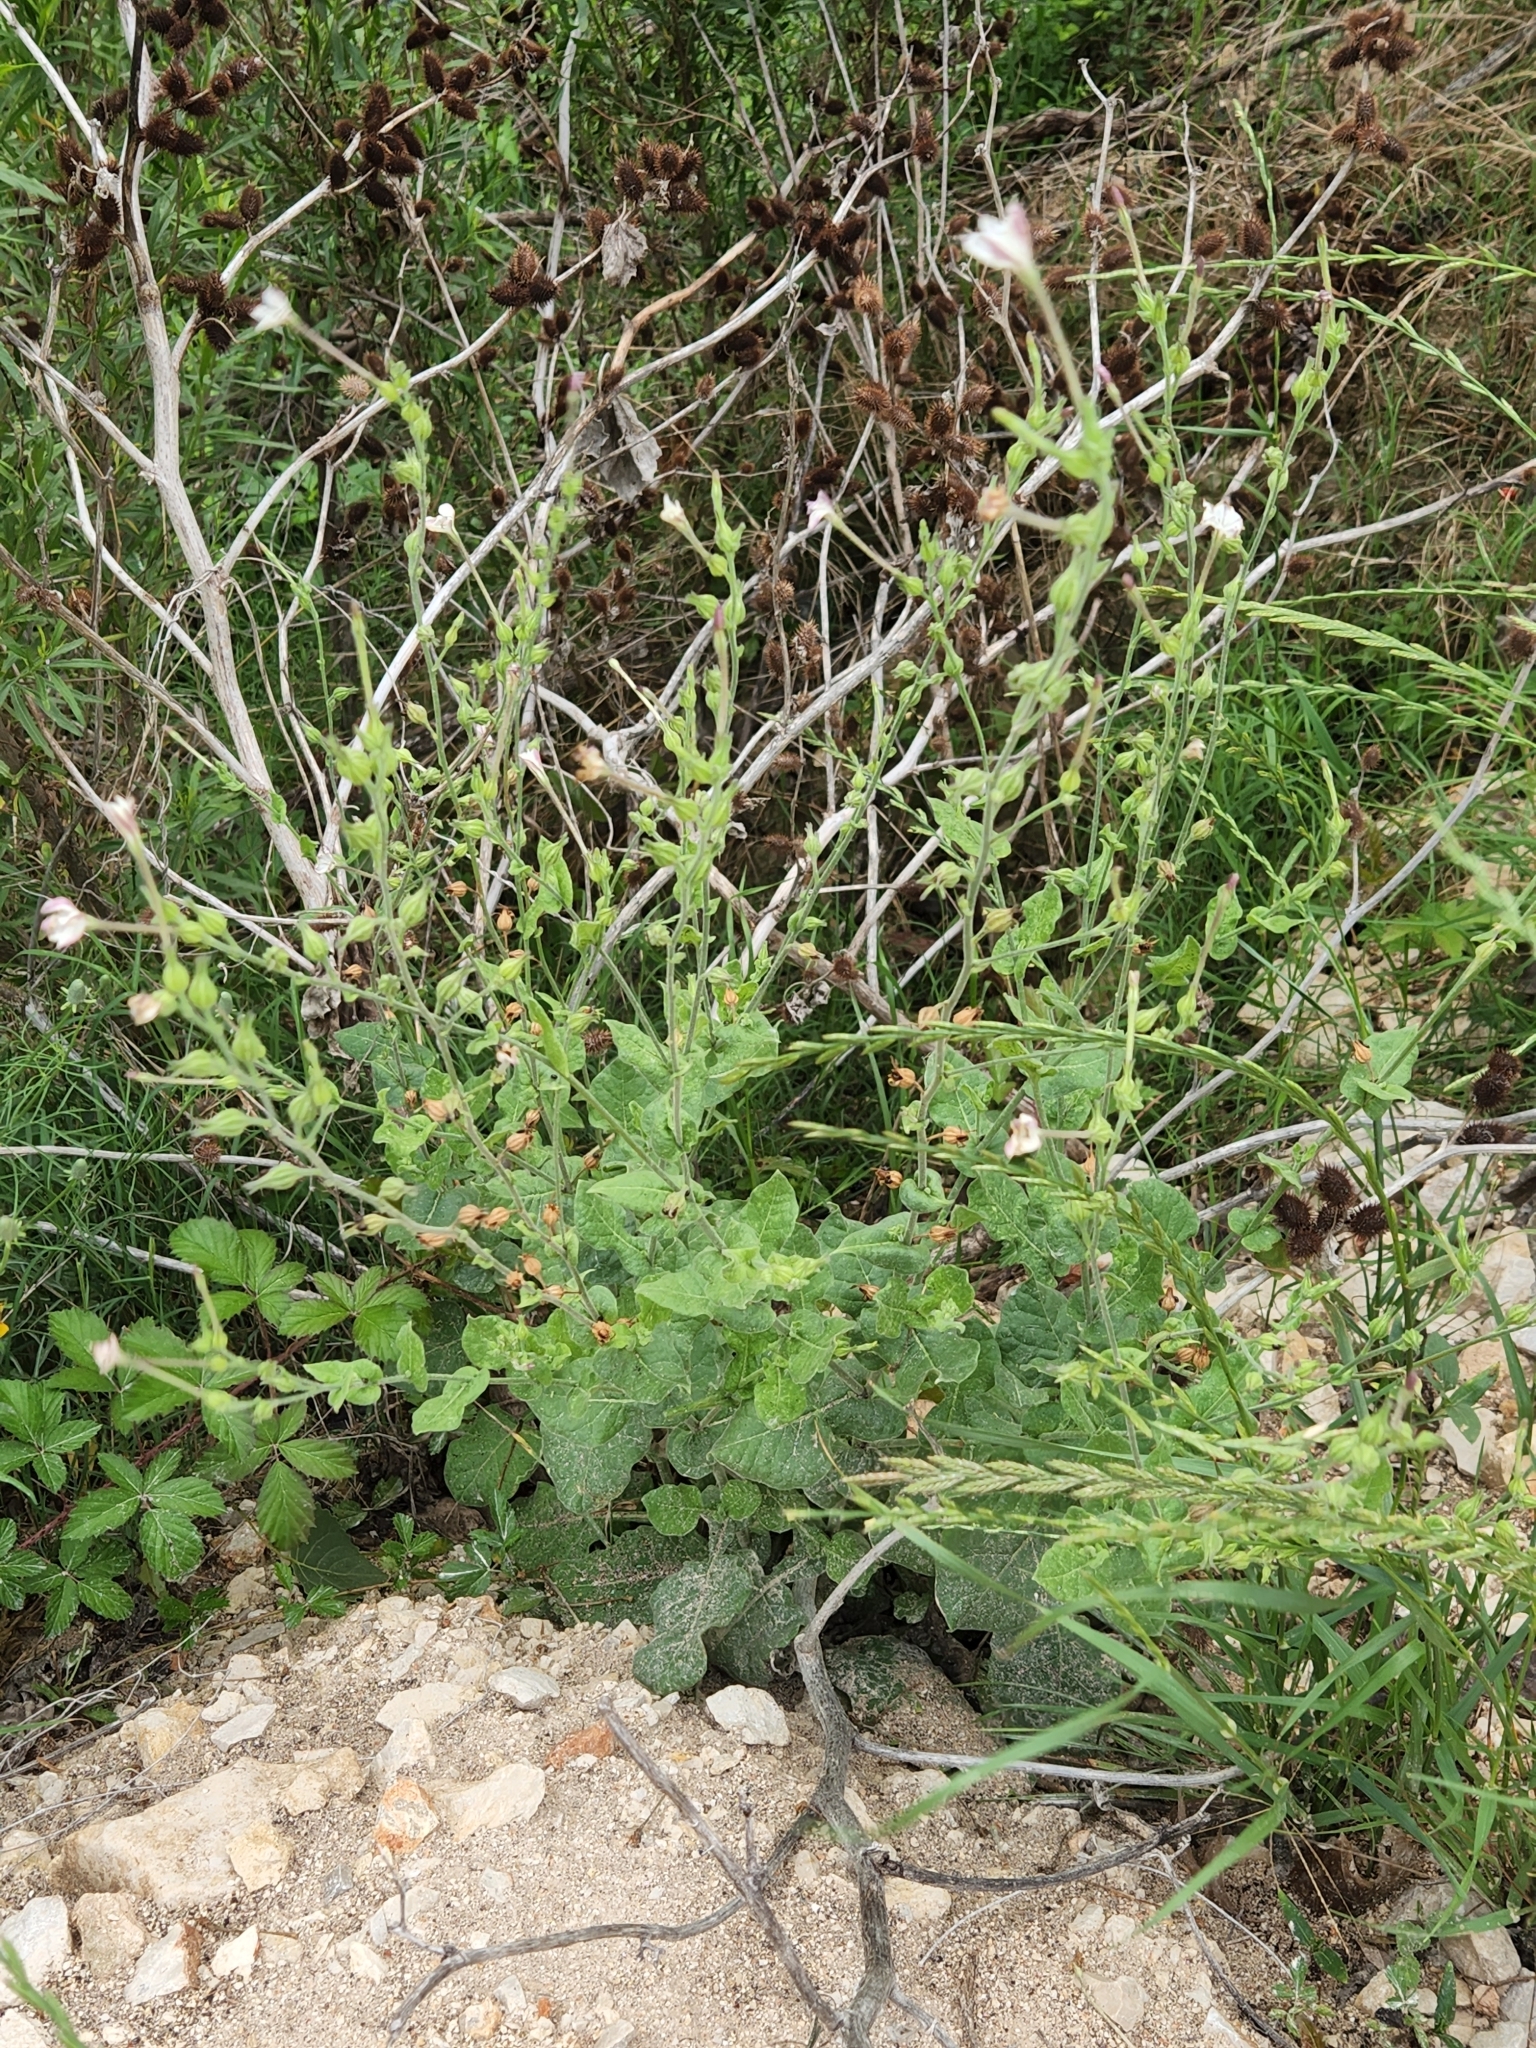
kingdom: Plantae
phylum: Tracheophyta
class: Magnoliopsida
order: Solanales
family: Solanaceae
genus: Nicotiana
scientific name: Nicotiana repanda
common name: Fiddle-leaf tobacco
